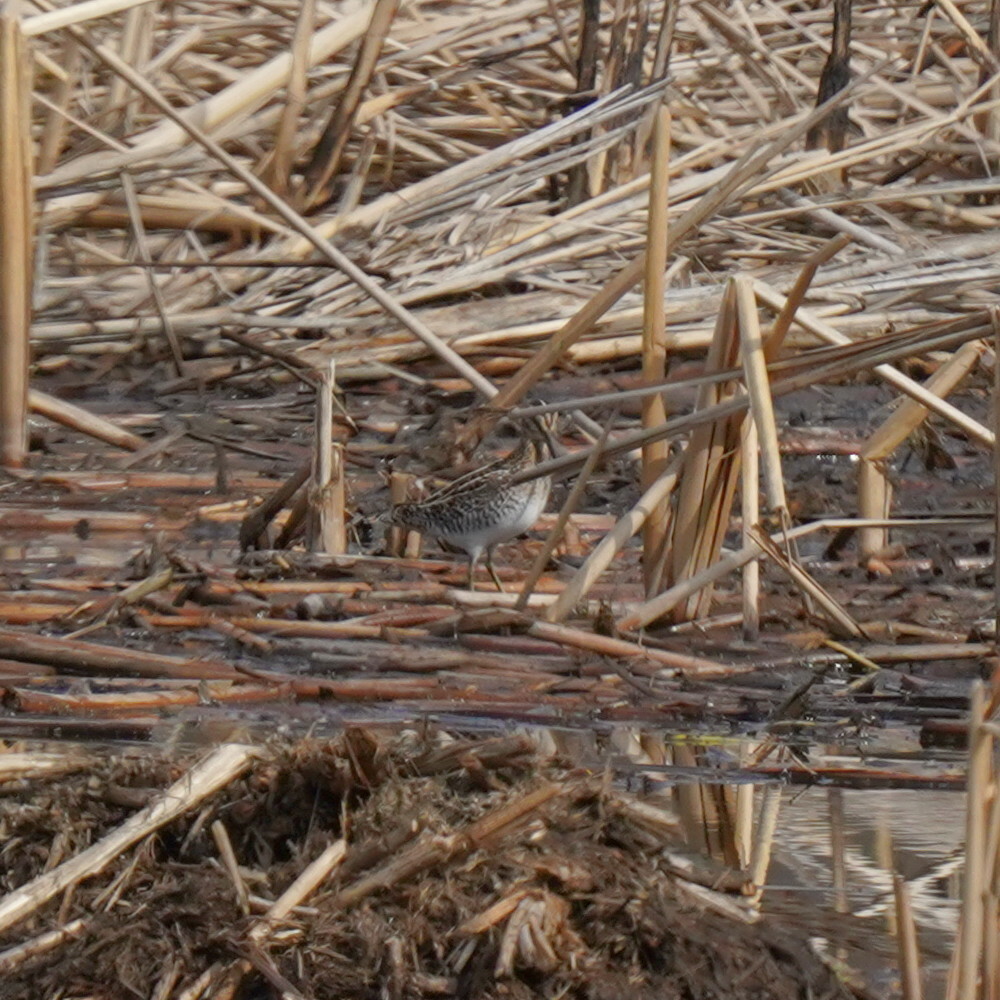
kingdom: Animalia
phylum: Chordata
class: Aves
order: Charadriiformes
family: Scolopacidae
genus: Gallinago
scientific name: Gallinago delicata
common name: Wilson's snipe
